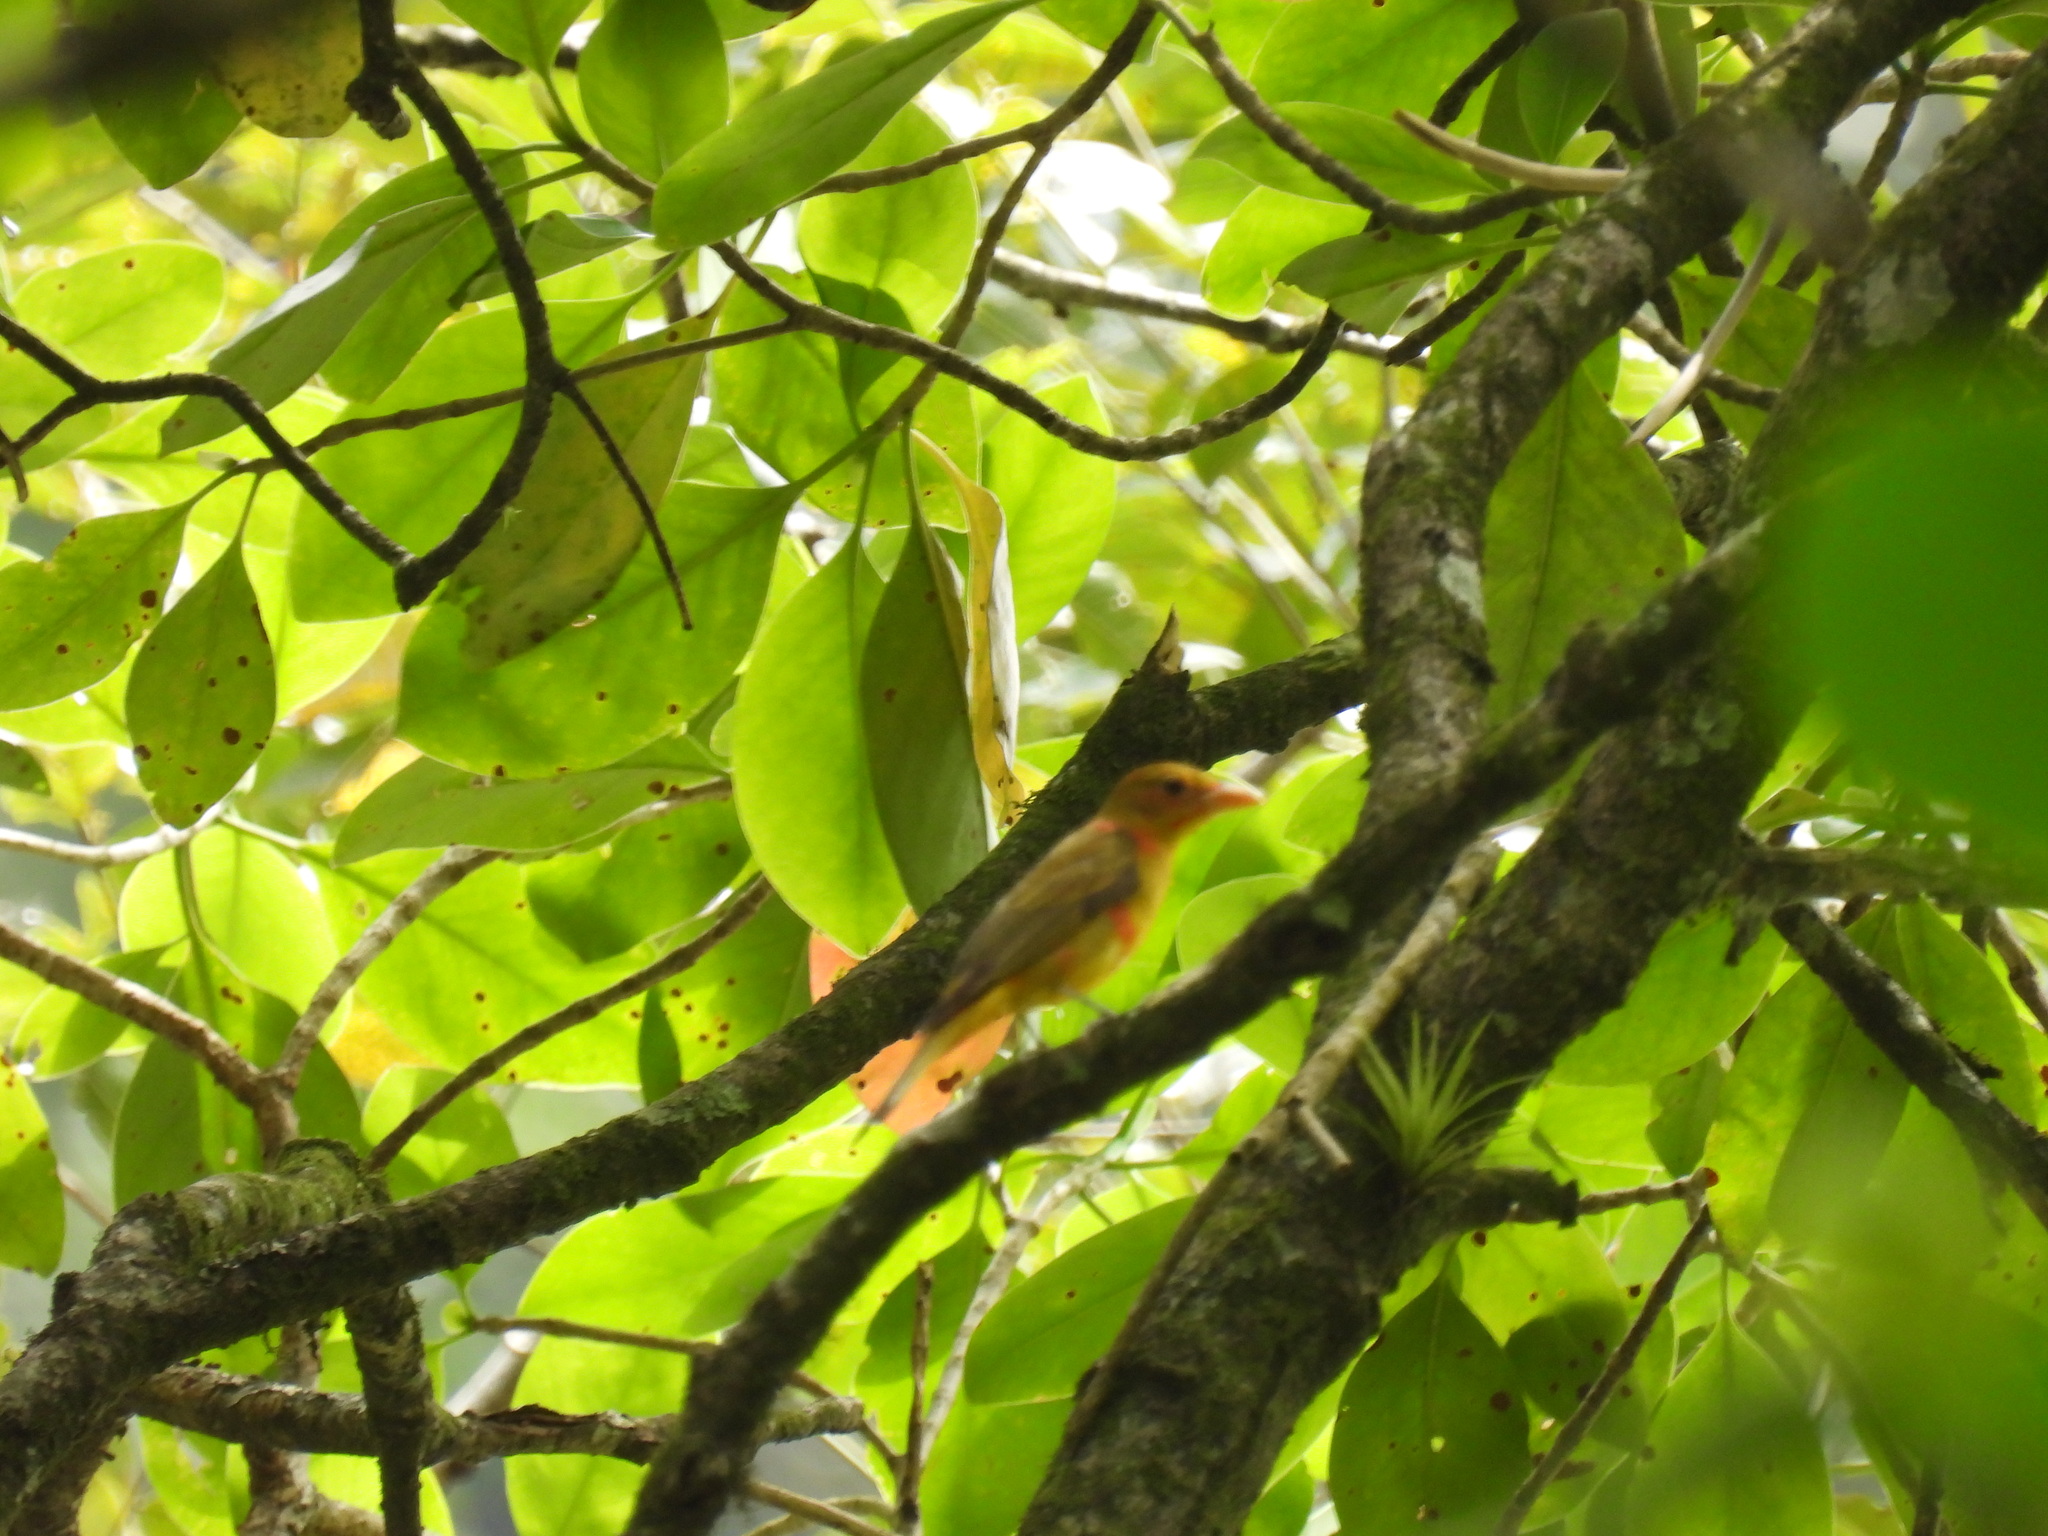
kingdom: Animalia
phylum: Chordata
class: Aves
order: Passeriformes
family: Cardinalidae
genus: Piranga
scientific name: Piranga rubra
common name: Summer tanager
